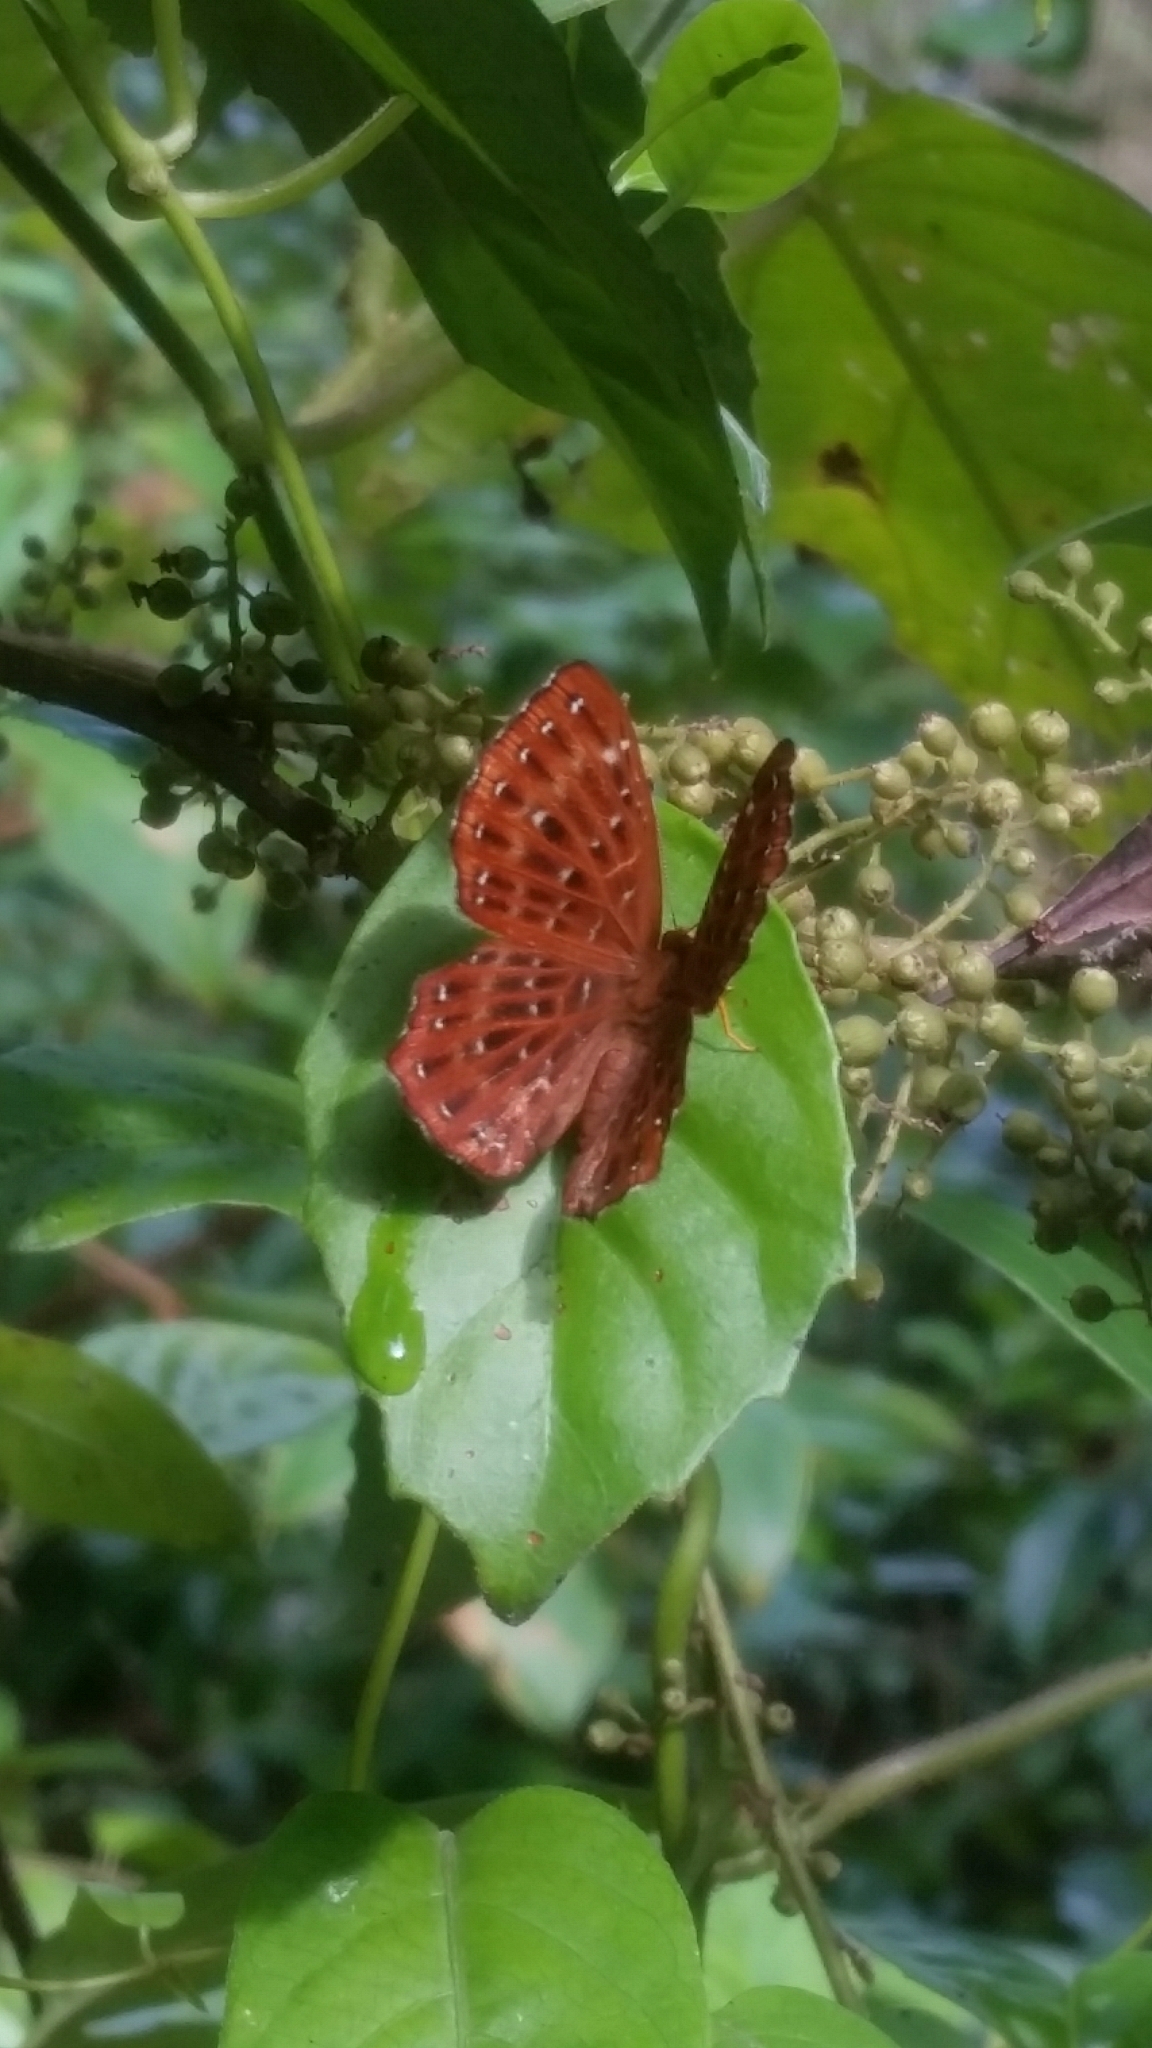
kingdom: Animalia
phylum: Arthropoda
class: Insecta
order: Lepidoptera
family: Riodinidae
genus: Zemeros
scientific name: Zemeros flegyas
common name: Punchinello
